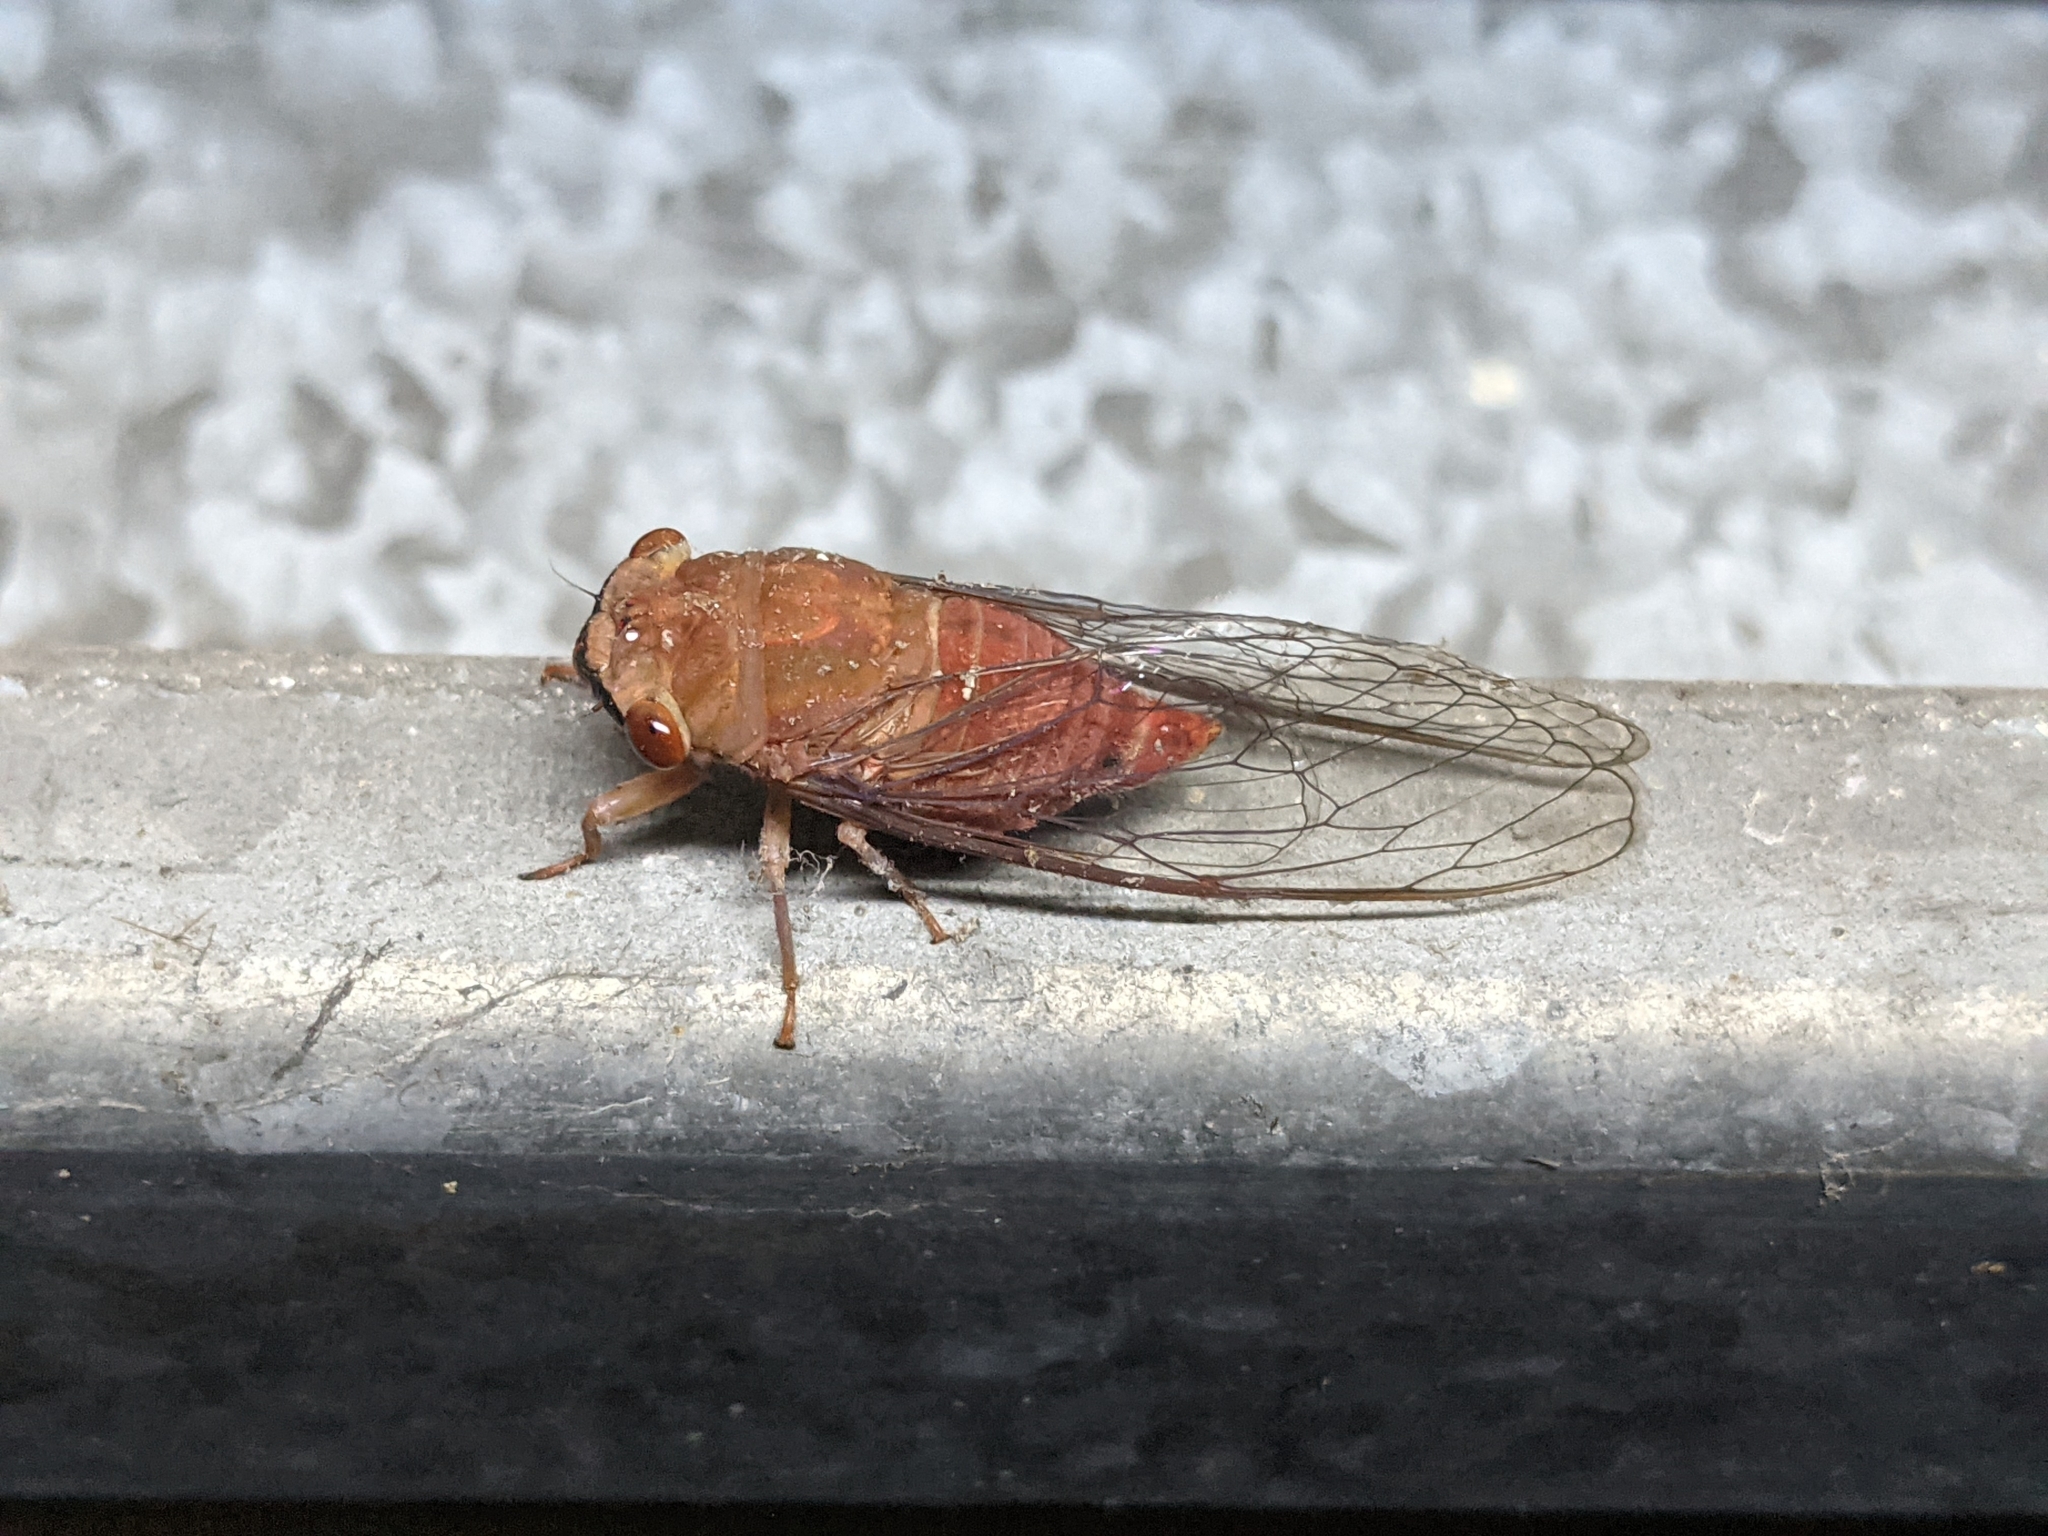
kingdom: Animalia
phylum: Arthropoda
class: Insecta
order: Hemiptera
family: Cicadidae
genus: Chremistica
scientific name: Chremistica ochracea
